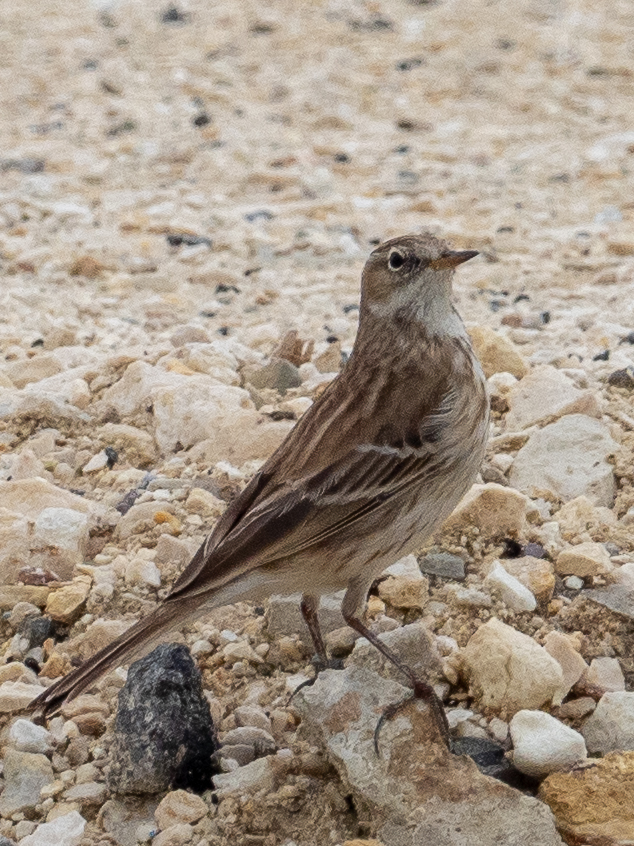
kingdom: Animalia
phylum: Chordata
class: Aves
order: Passeriformes
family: Motacillidae
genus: Anthus
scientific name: Anthus spinoletta
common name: Water pipit
